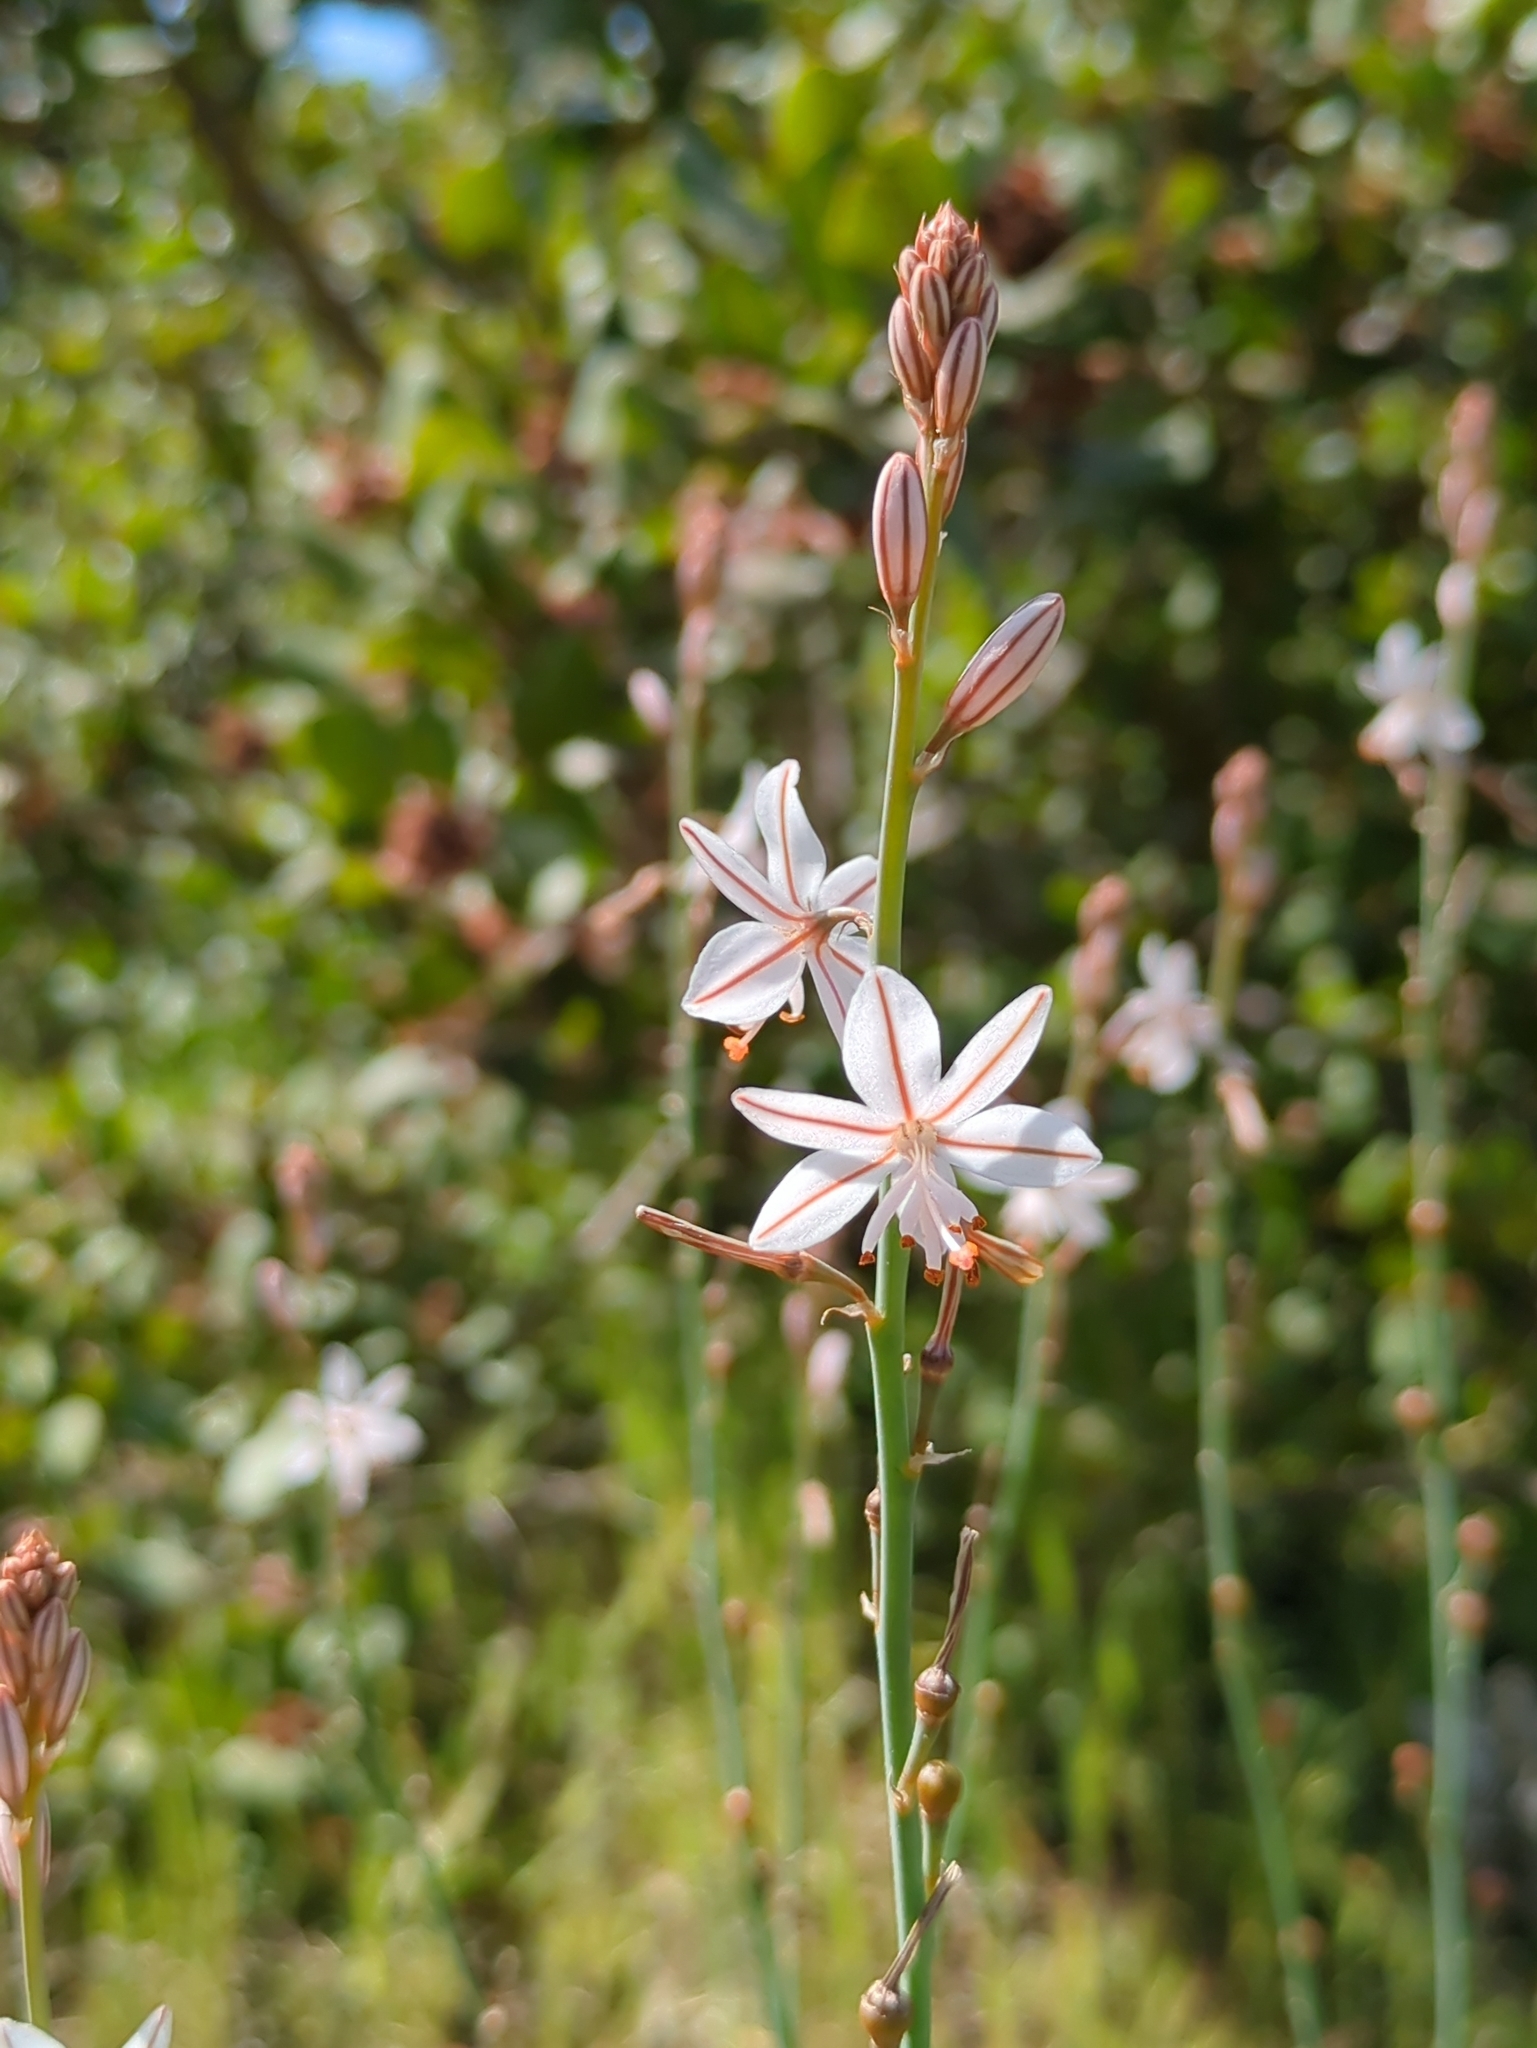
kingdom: Plantae
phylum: Tracheophyta
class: Liliopsida
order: Asparagales
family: Asphodelaceae
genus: Asphodelus
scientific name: Asphodelus fistulosus
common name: Onionweed
